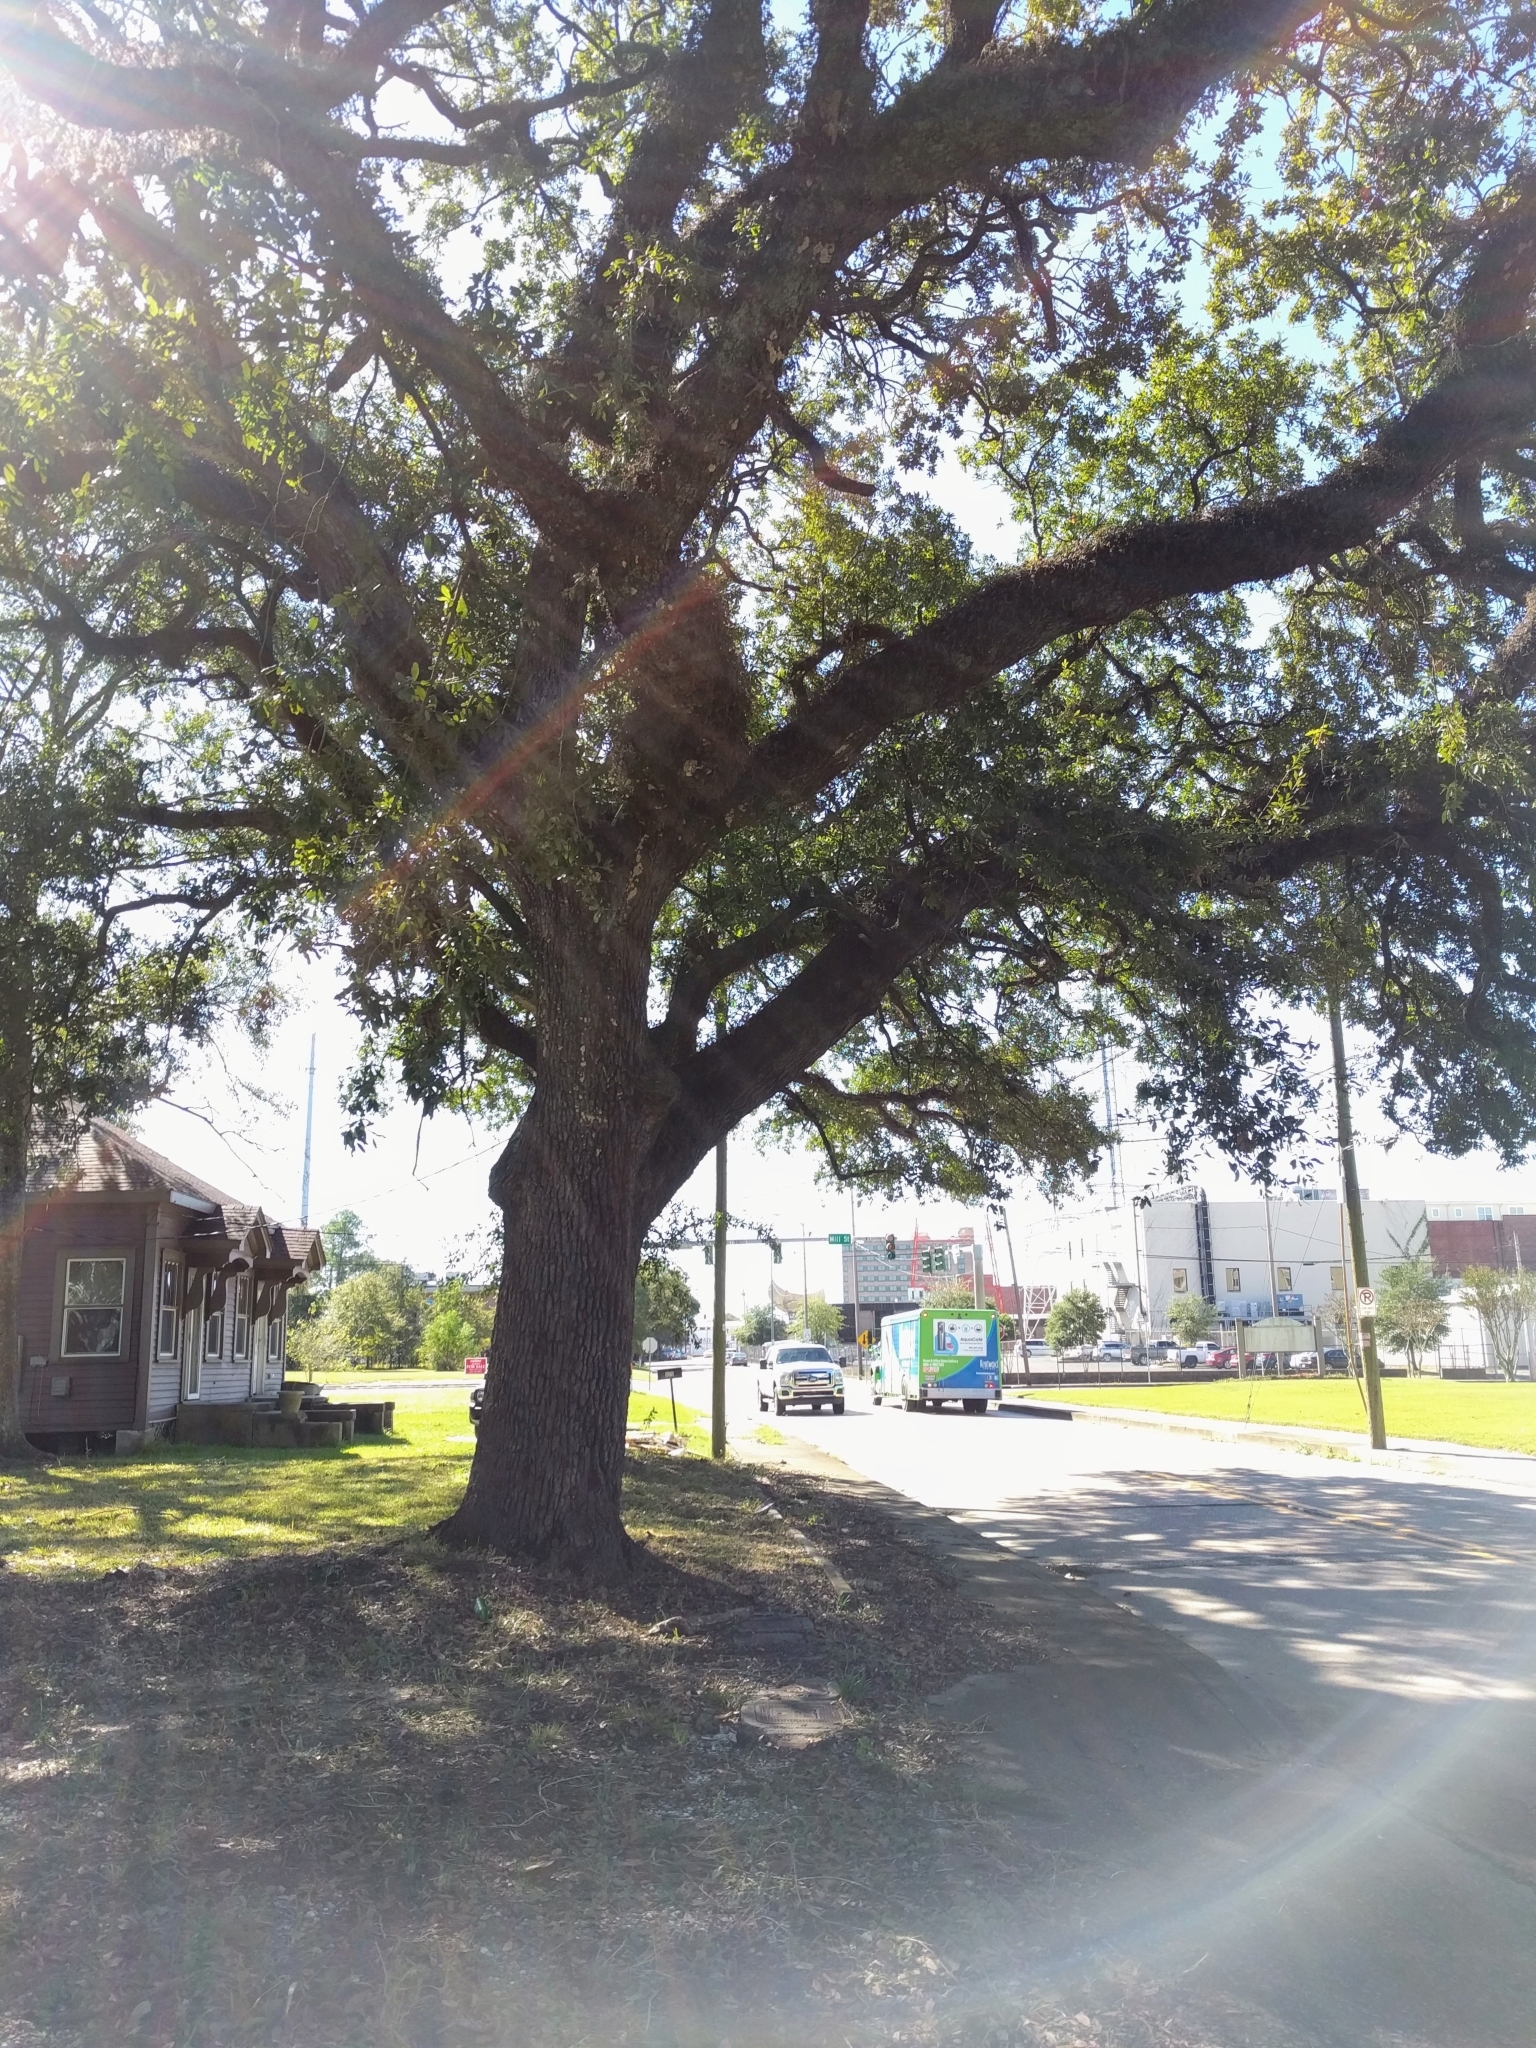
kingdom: Plantae
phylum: Tracheophyta
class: Magnoliopsida
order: Fagales
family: Fagaceae
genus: Quercus
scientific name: Quercus virginiana
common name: Southern live oak
